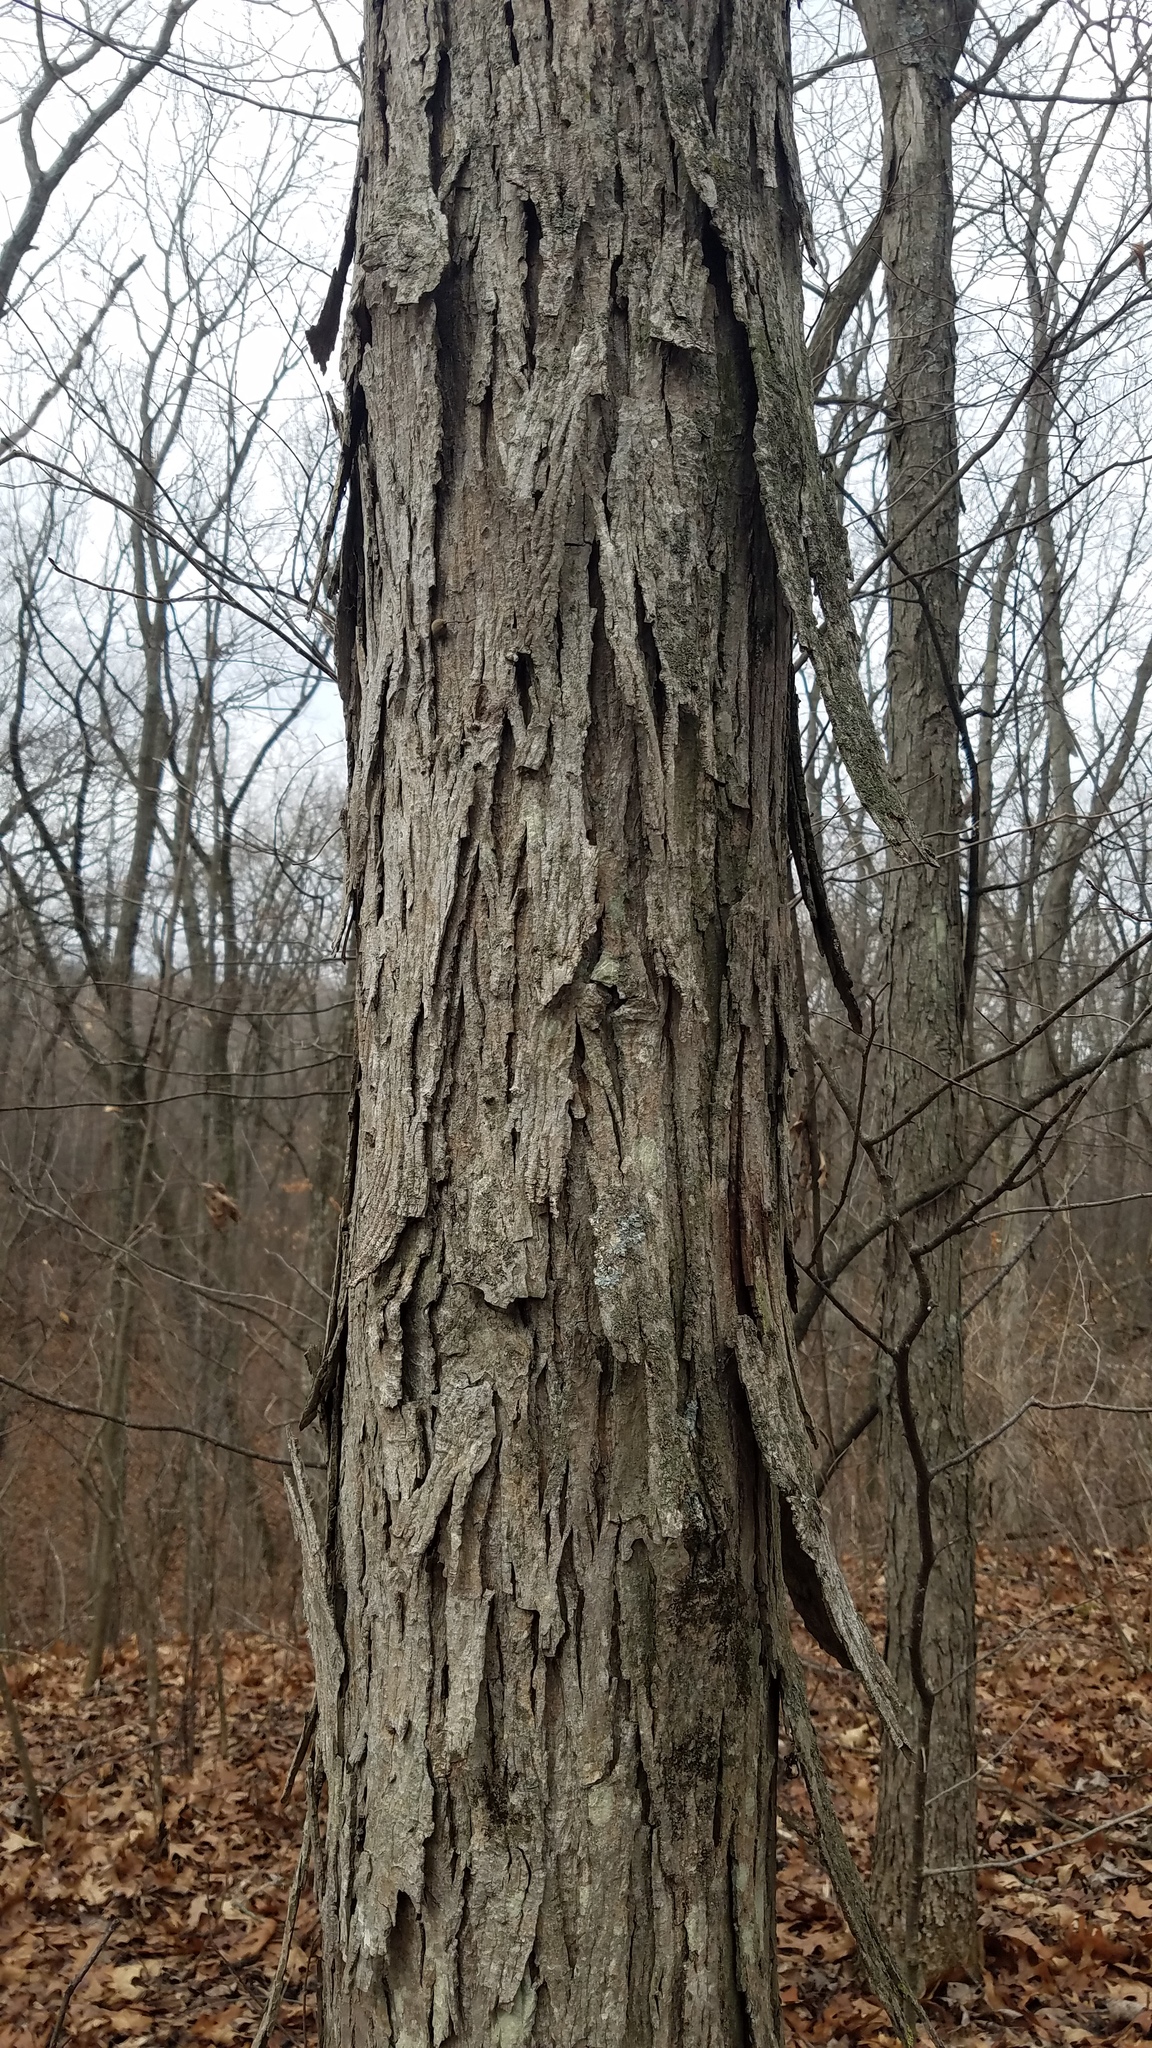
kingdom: Plantae
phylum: Tracheophyta
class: Magnoliopsida
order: Fagales
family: Juglandaceae
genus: Carya
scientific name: Carya ovata
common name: Shagbark hickory
